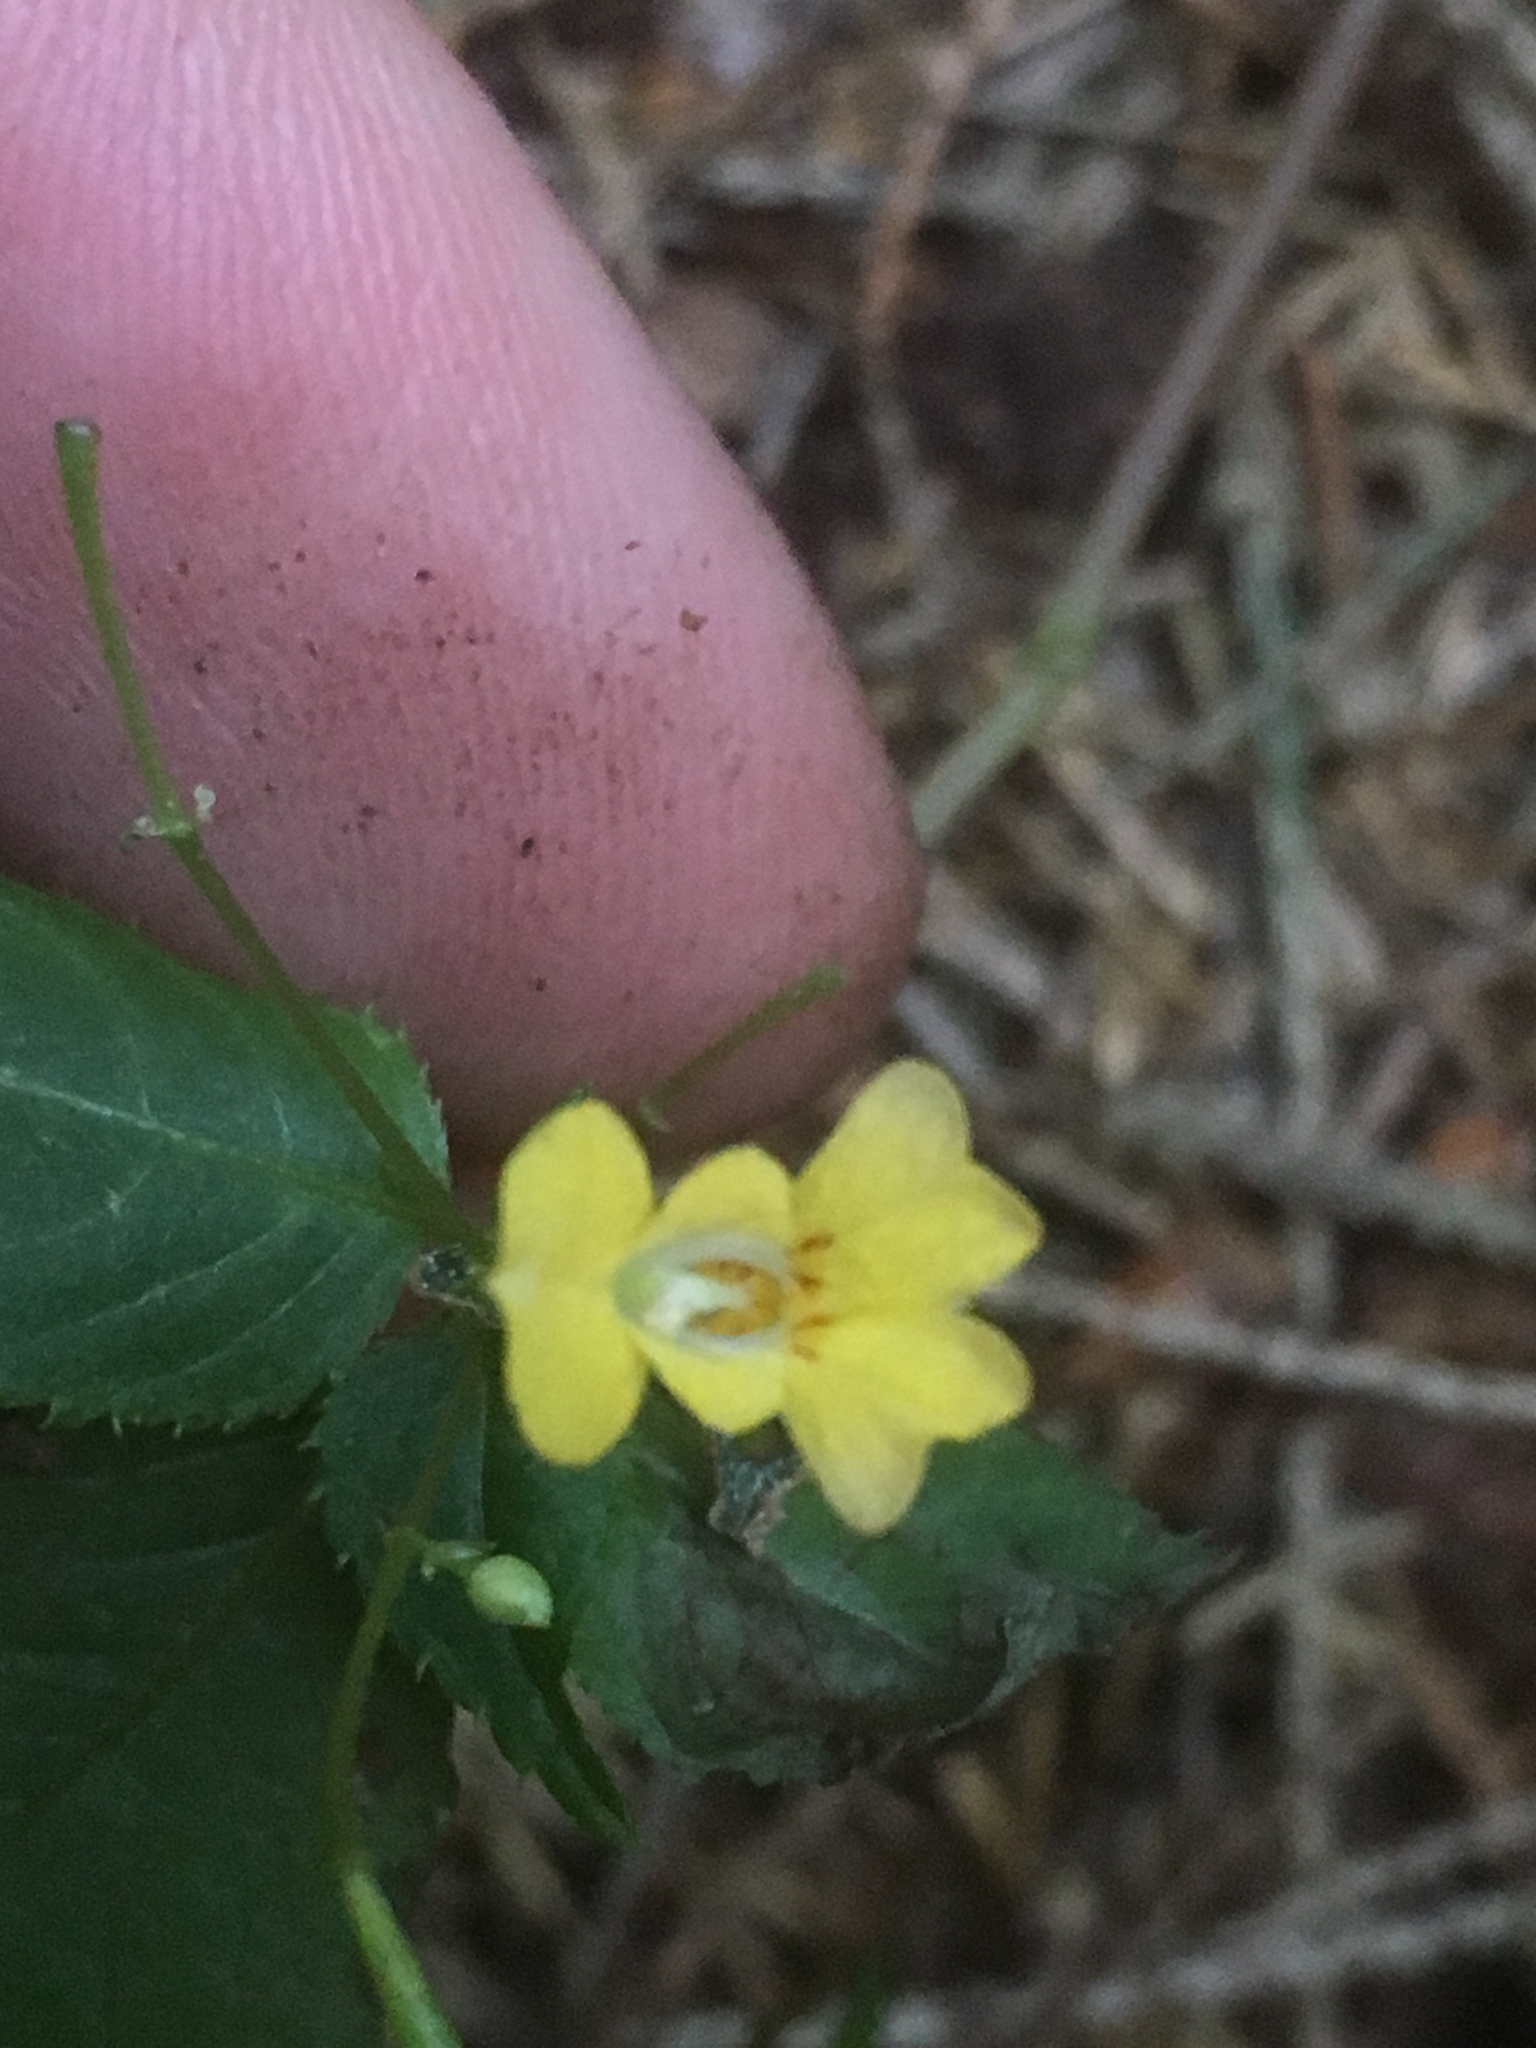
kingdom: Plantae
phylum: Tracheophyta
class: Magnoliopsida
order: Ericales
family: Balsaminaceae
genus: Impatiens
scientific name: Impatiens parviflora
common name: Small balsam
